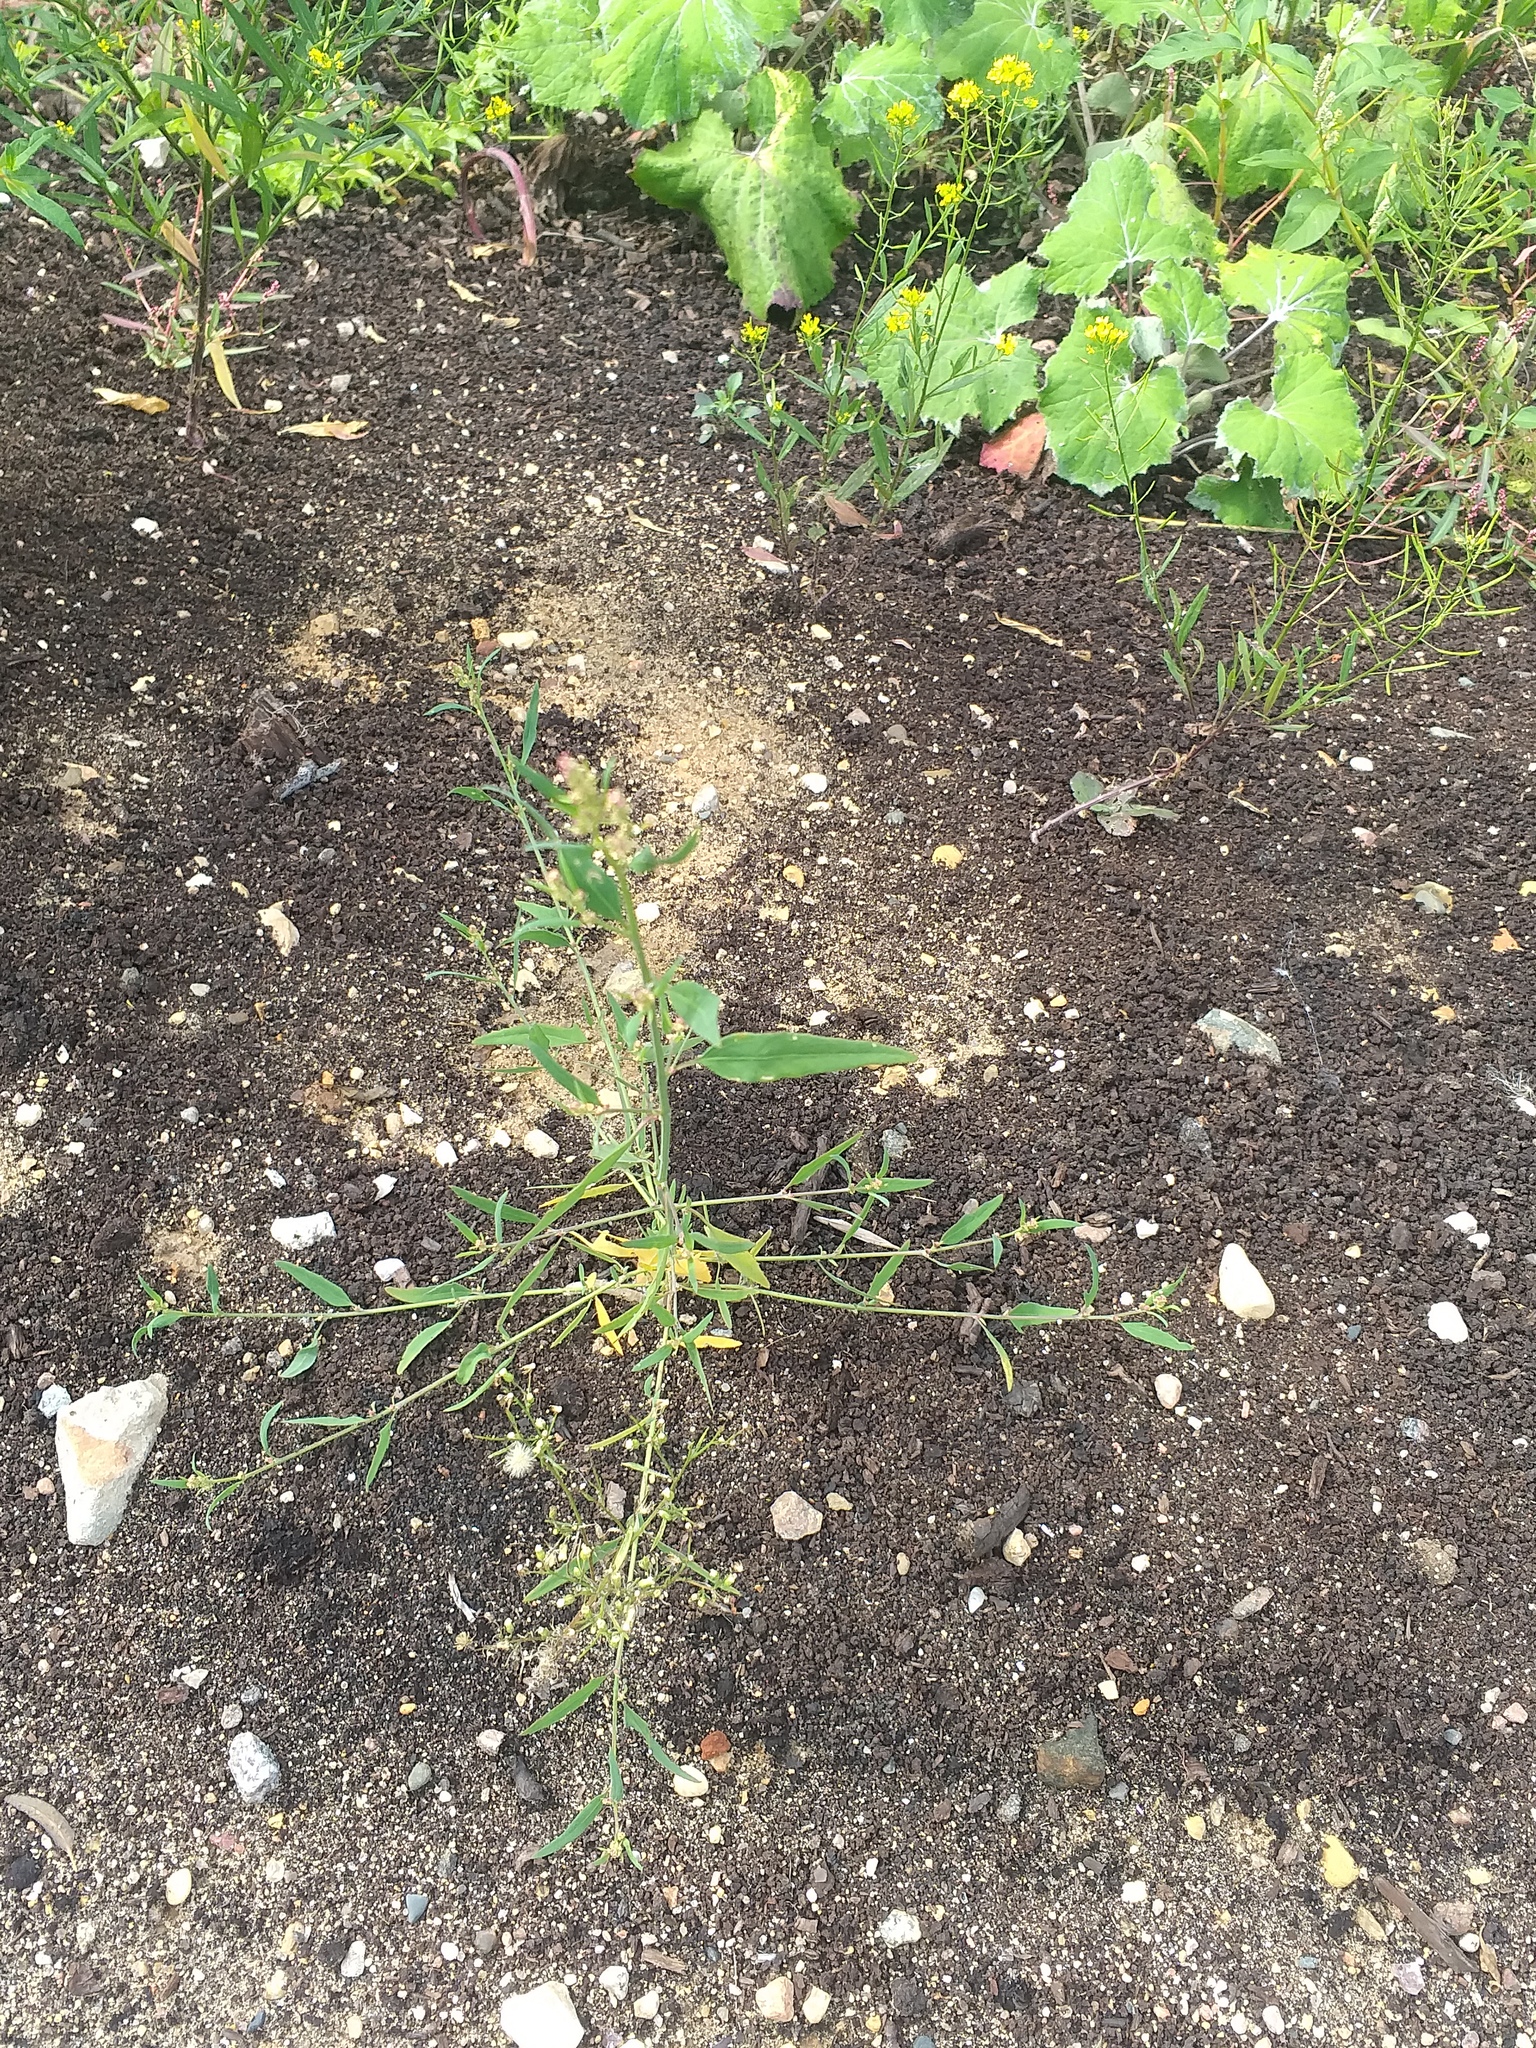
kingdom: Plantae
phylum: Tracheophyta
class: Magnoliopsida
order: Caryophyllales
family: Amaranthaceae
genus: Atriplex
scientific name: Atriplex patula
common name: Common orache
